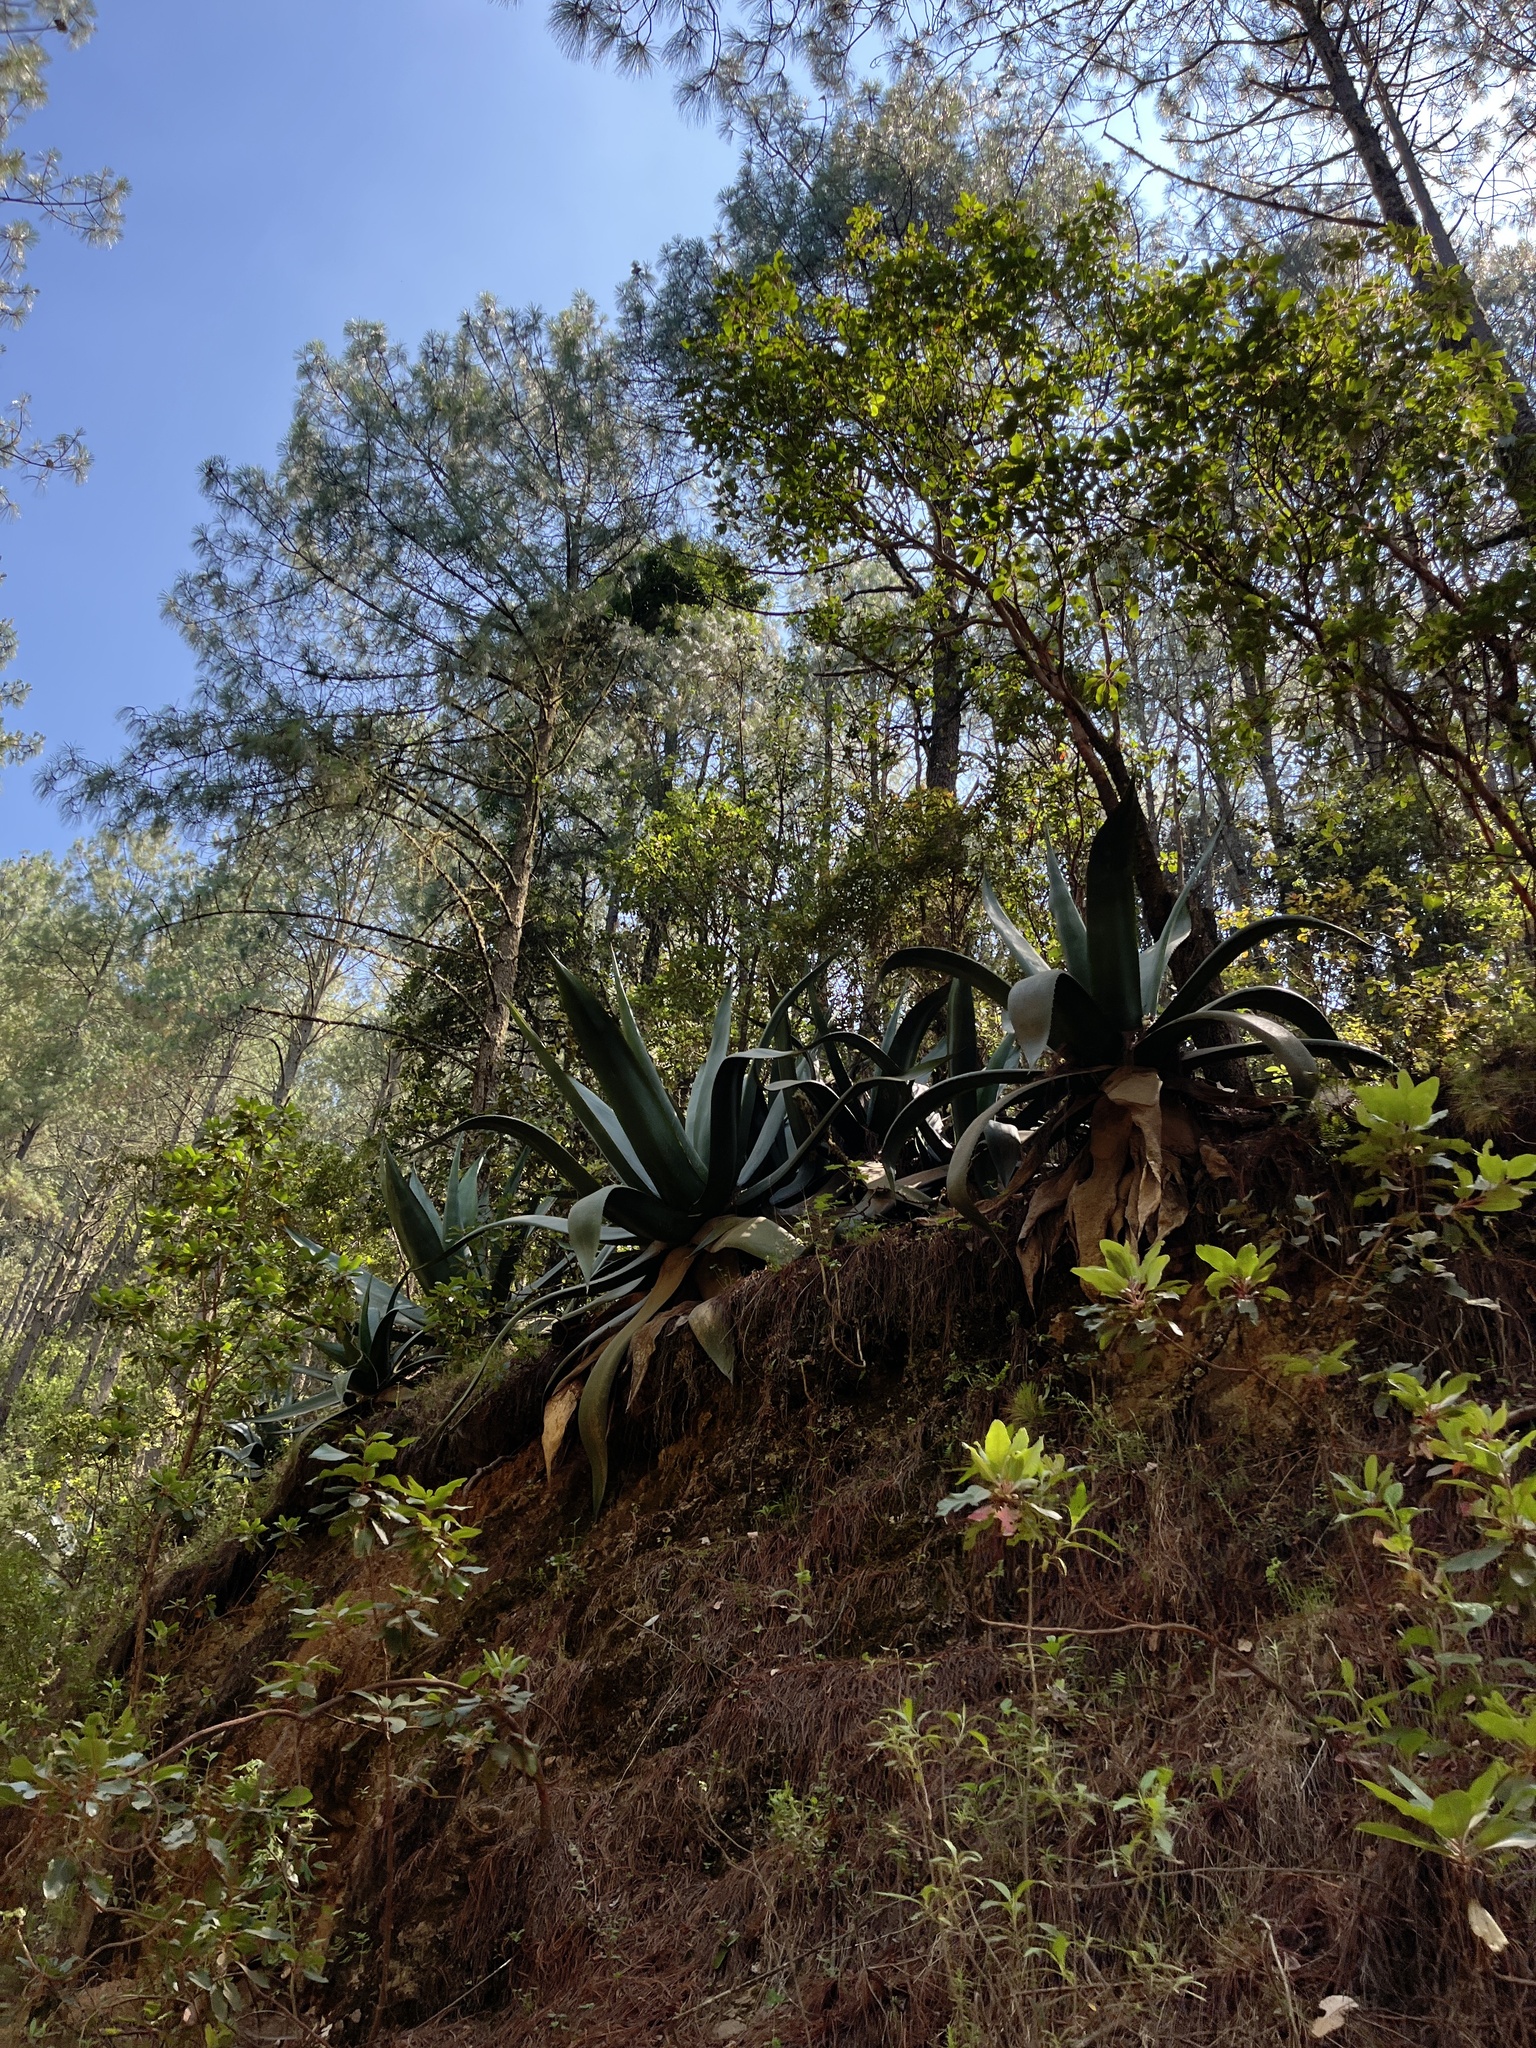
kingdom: Plantae
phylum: Tracheophyta
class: Liliopsida
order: Asparagales
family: Asparagaceae
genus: Agave
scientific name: Agave atrovirens
